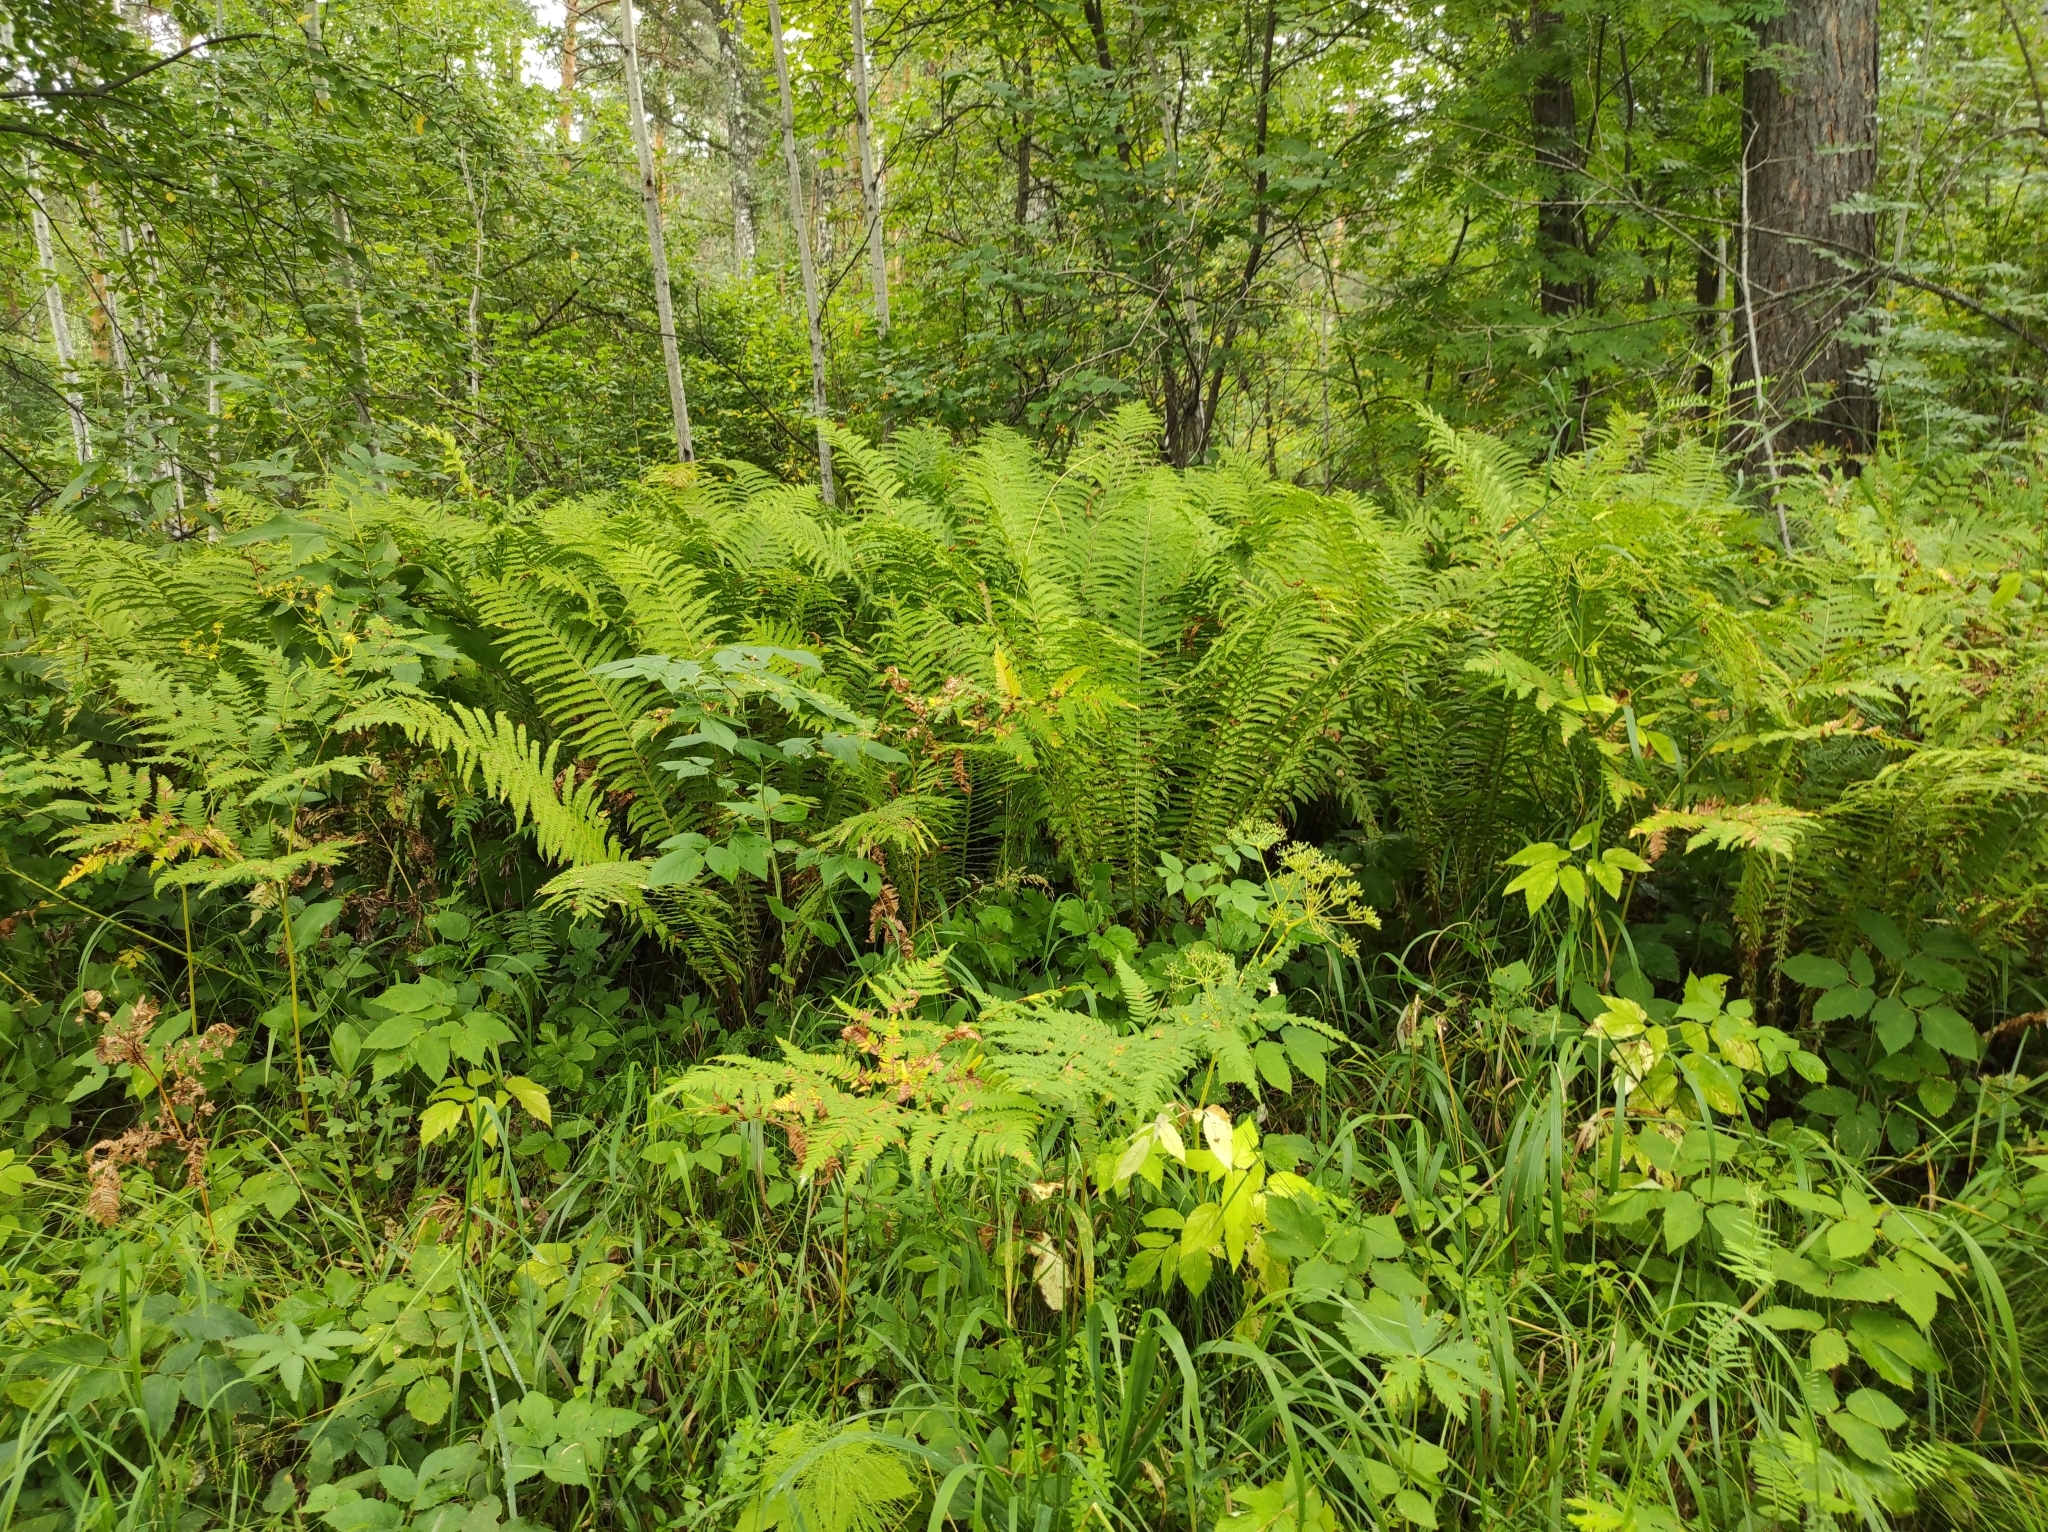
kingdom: Plantae
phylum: Tracheophyta
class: Polypodiopsida
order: Polypodiales
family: Onocleaceae
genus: Matteuccia
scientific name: Matteuccia struthiopteris
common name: Ostrich fern
